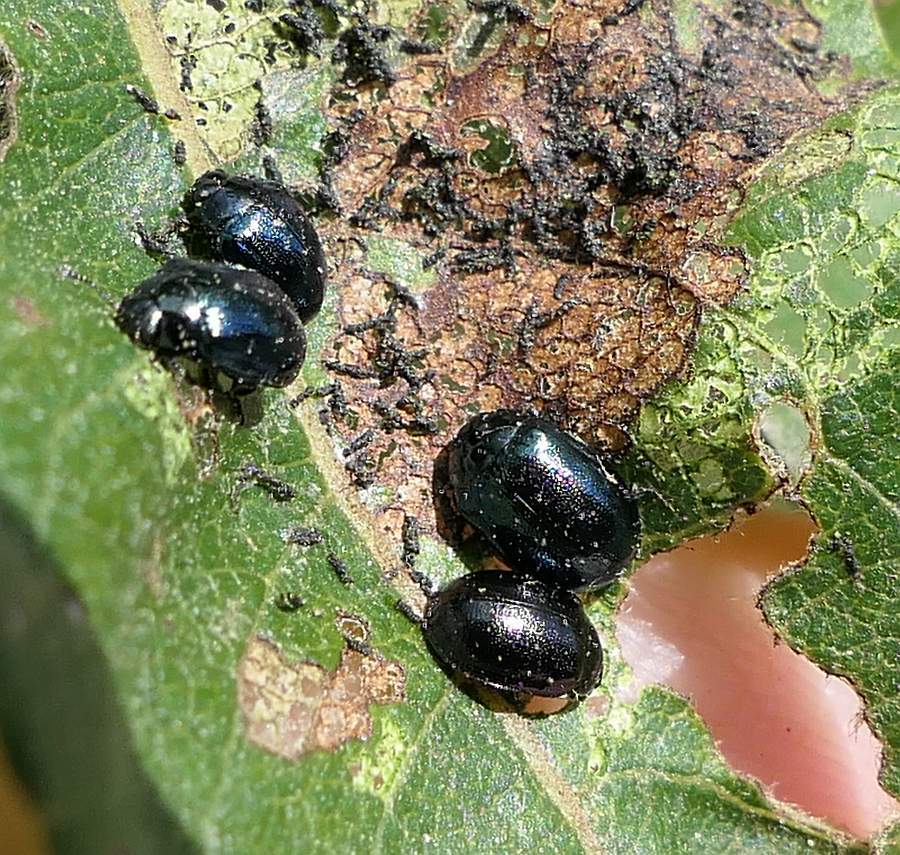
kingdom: Animalia
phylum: Arthropoda
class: Insecta
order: Coleoptera
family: Chrysomelidae
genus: Plagiodera
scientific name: Plagiodera versicolora
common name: Imported willow leaf beetle
